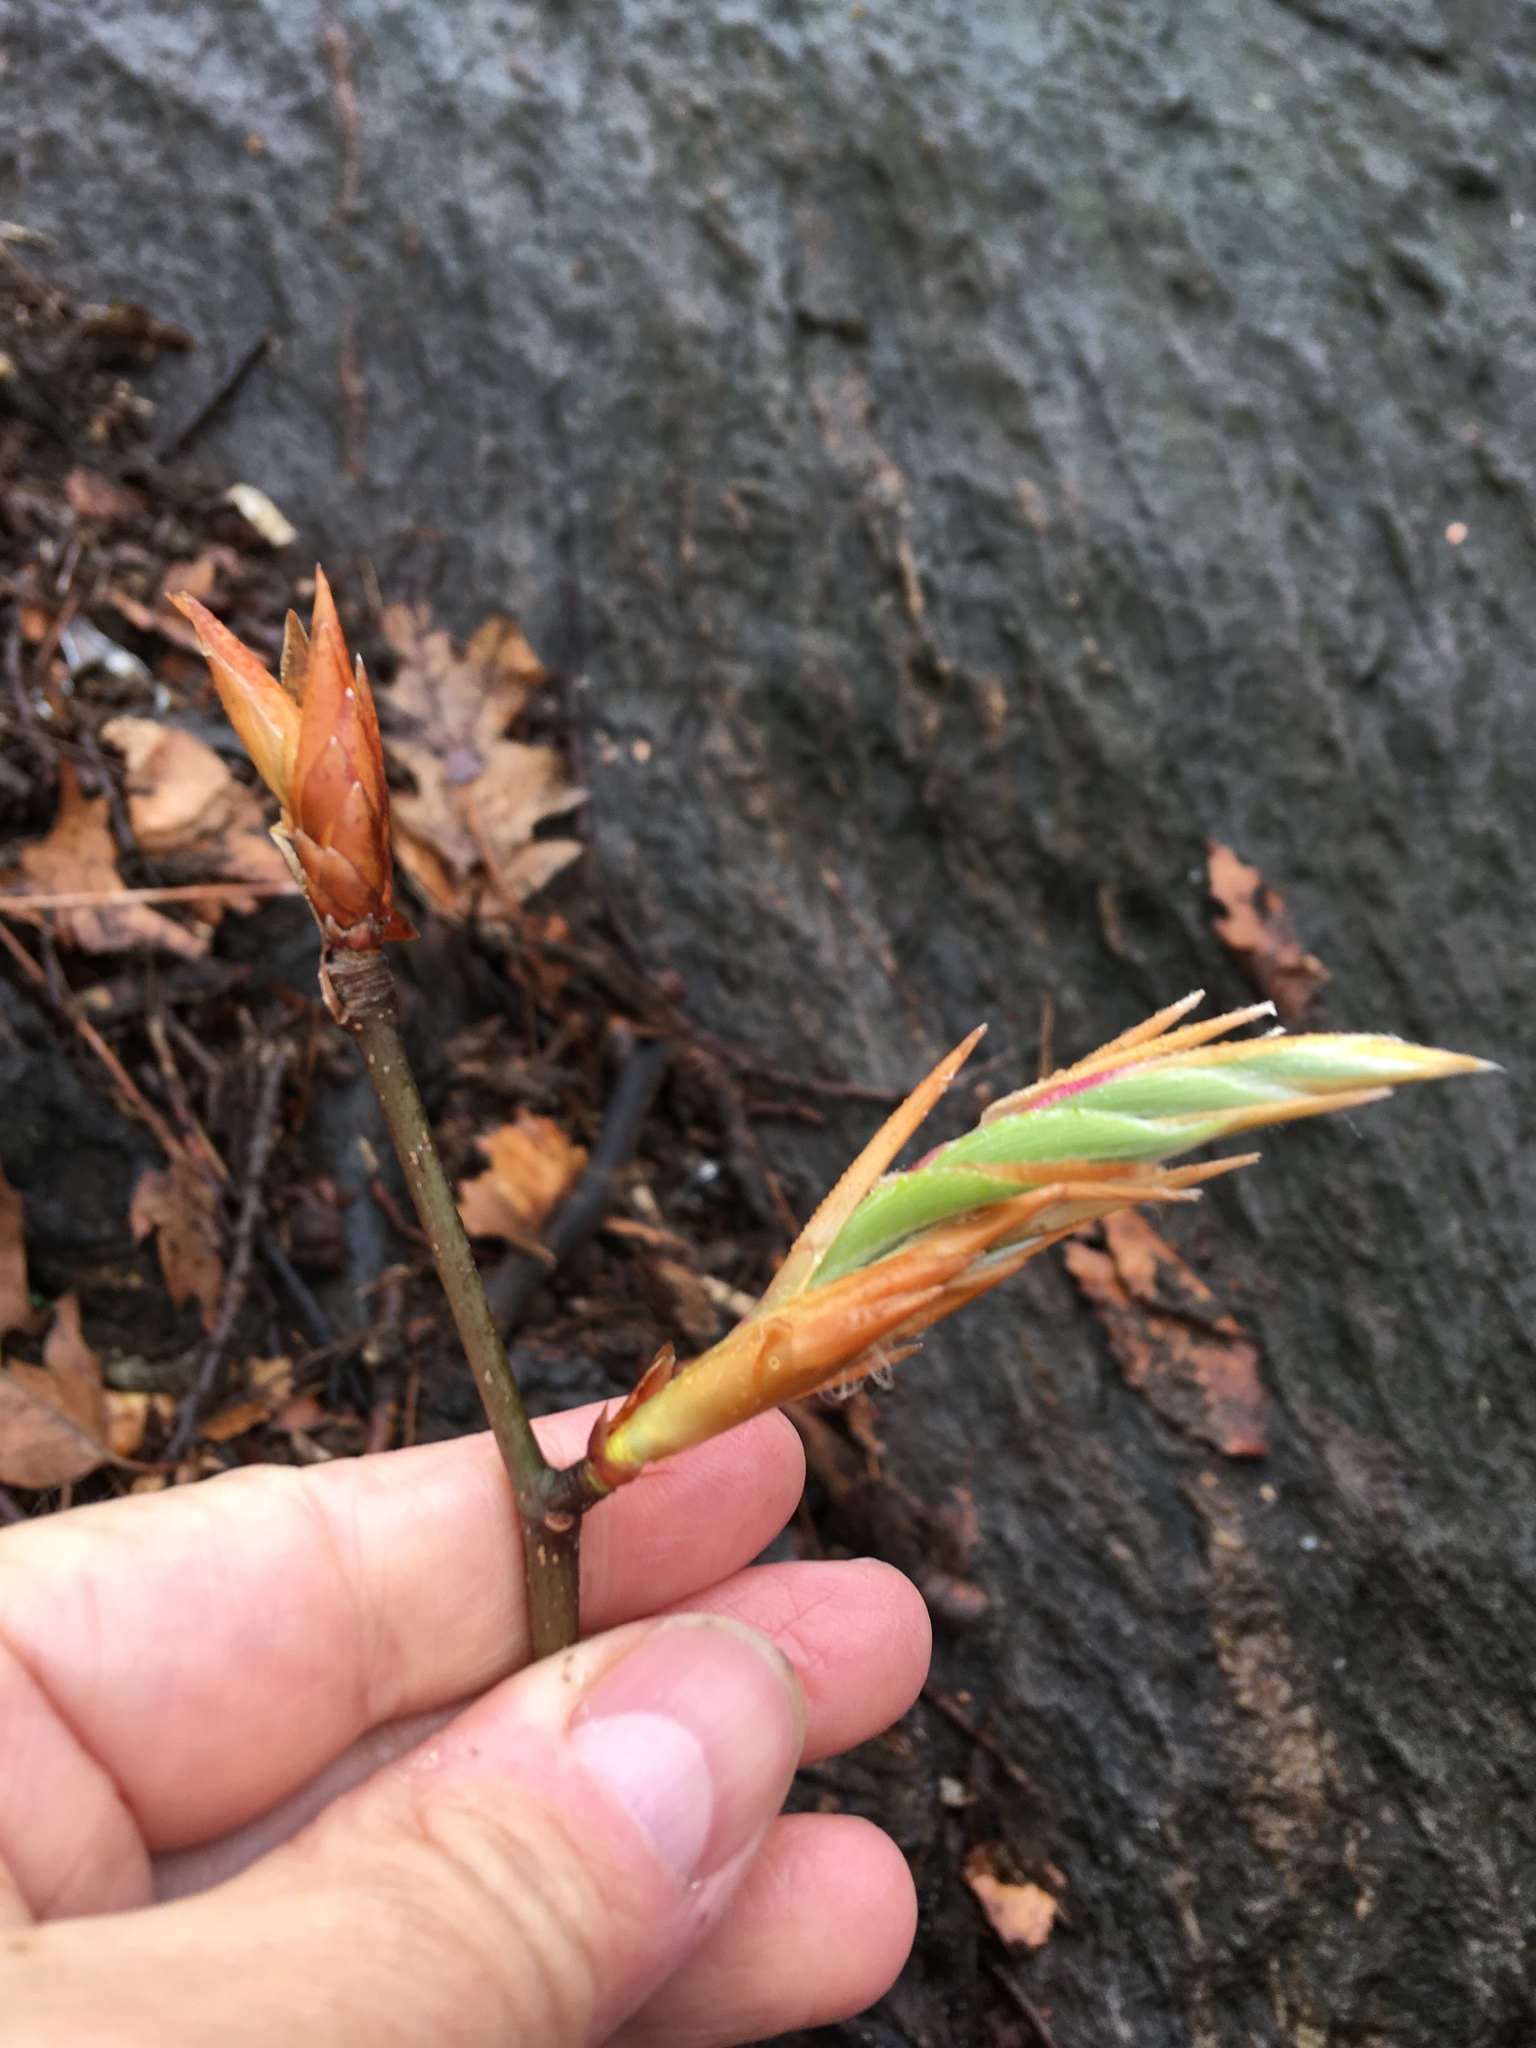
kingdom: Plantae
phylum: Tracheophyta
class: Magnoliopsida
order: Fagales
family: Fagaceae
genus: Fagus
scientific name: Fagus grandifolia
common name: American beech
